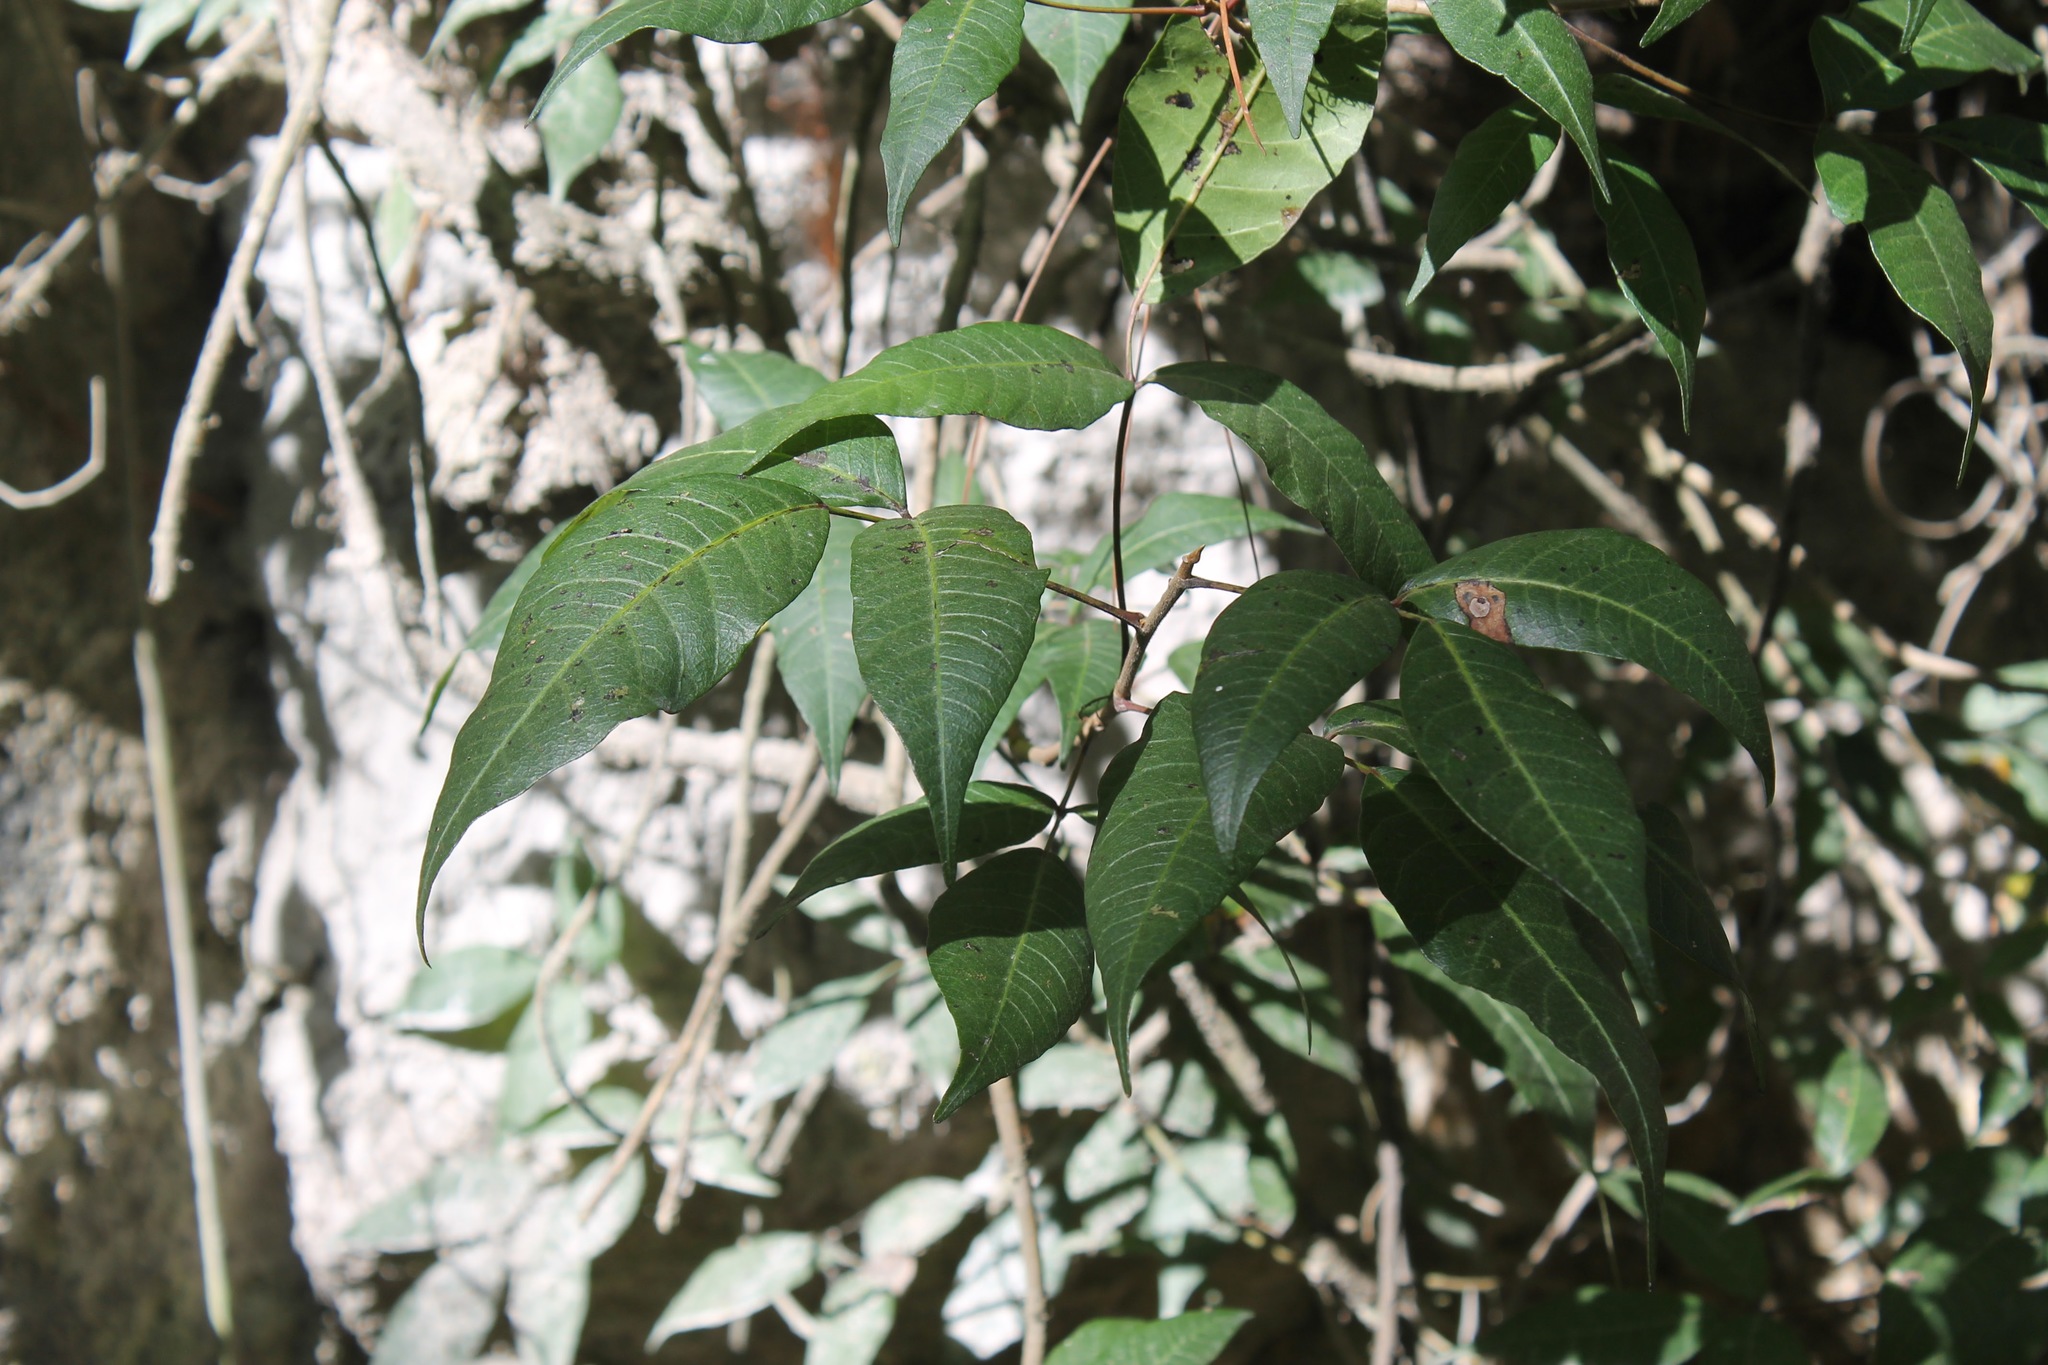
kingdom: Plantae
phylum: Tracheophyta
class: Magnoliopsida
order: Sapindales
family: Anacardiaceae
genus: Toxicodendron
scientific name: Toxicodendron radicans
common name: Poison ivy
